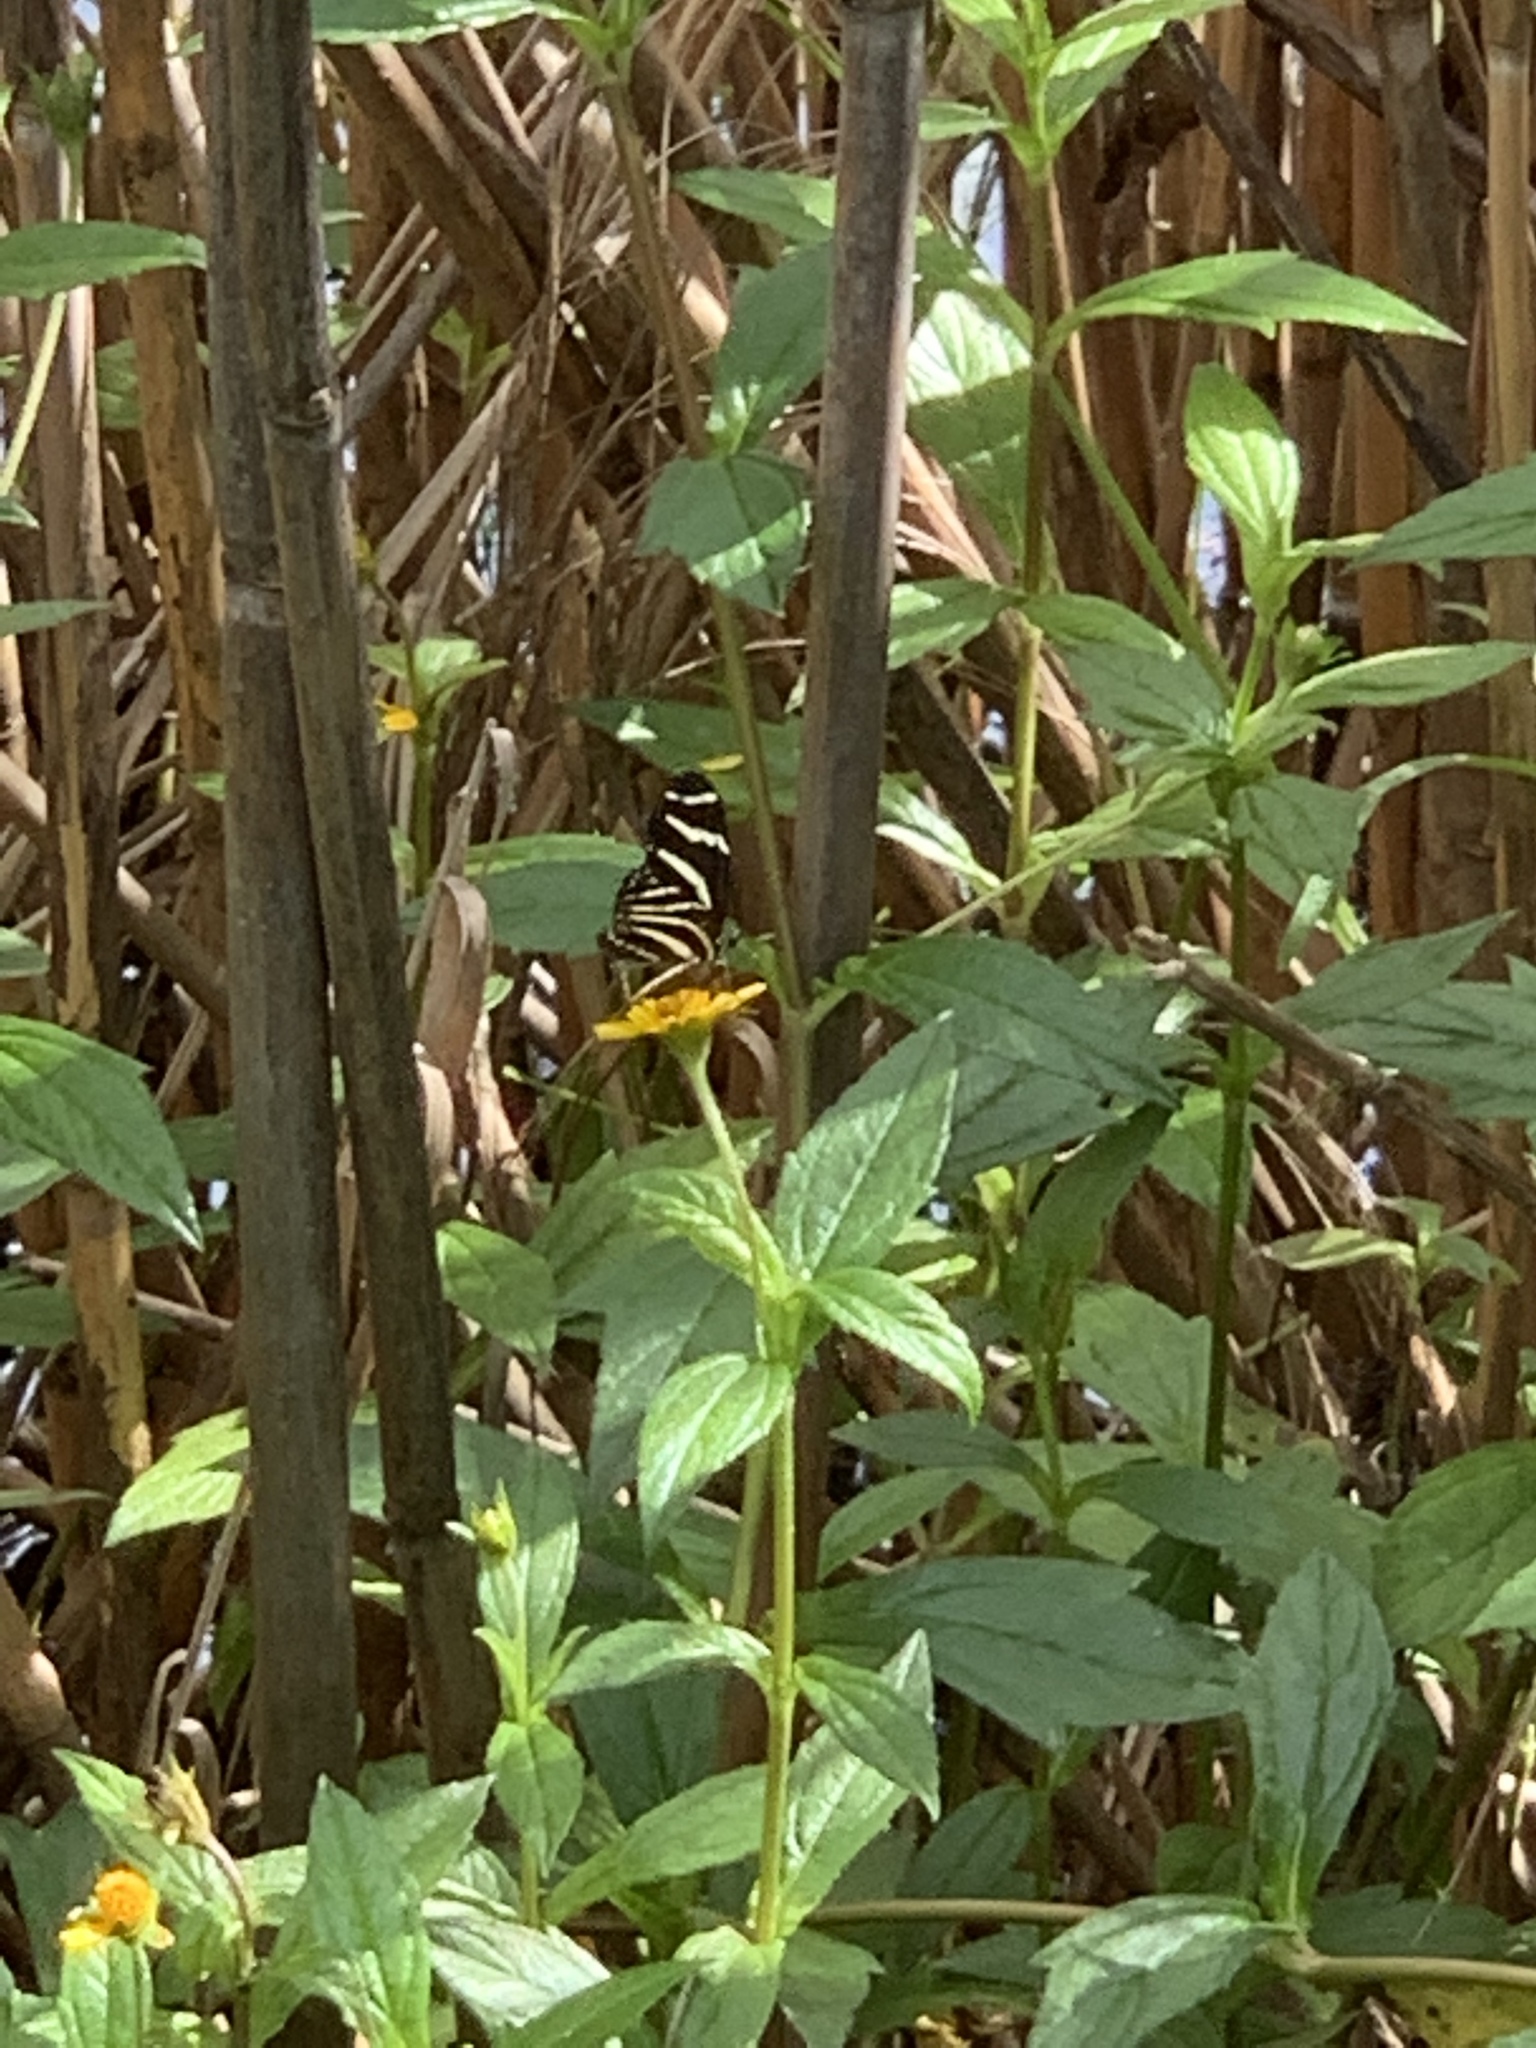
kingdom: Animalia
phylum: Arthropoda
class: Insecta
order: Lepidoptera
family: Nymphalidae
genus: Heliconius
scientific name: Heliconius charithonia
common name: Zebra long wing
